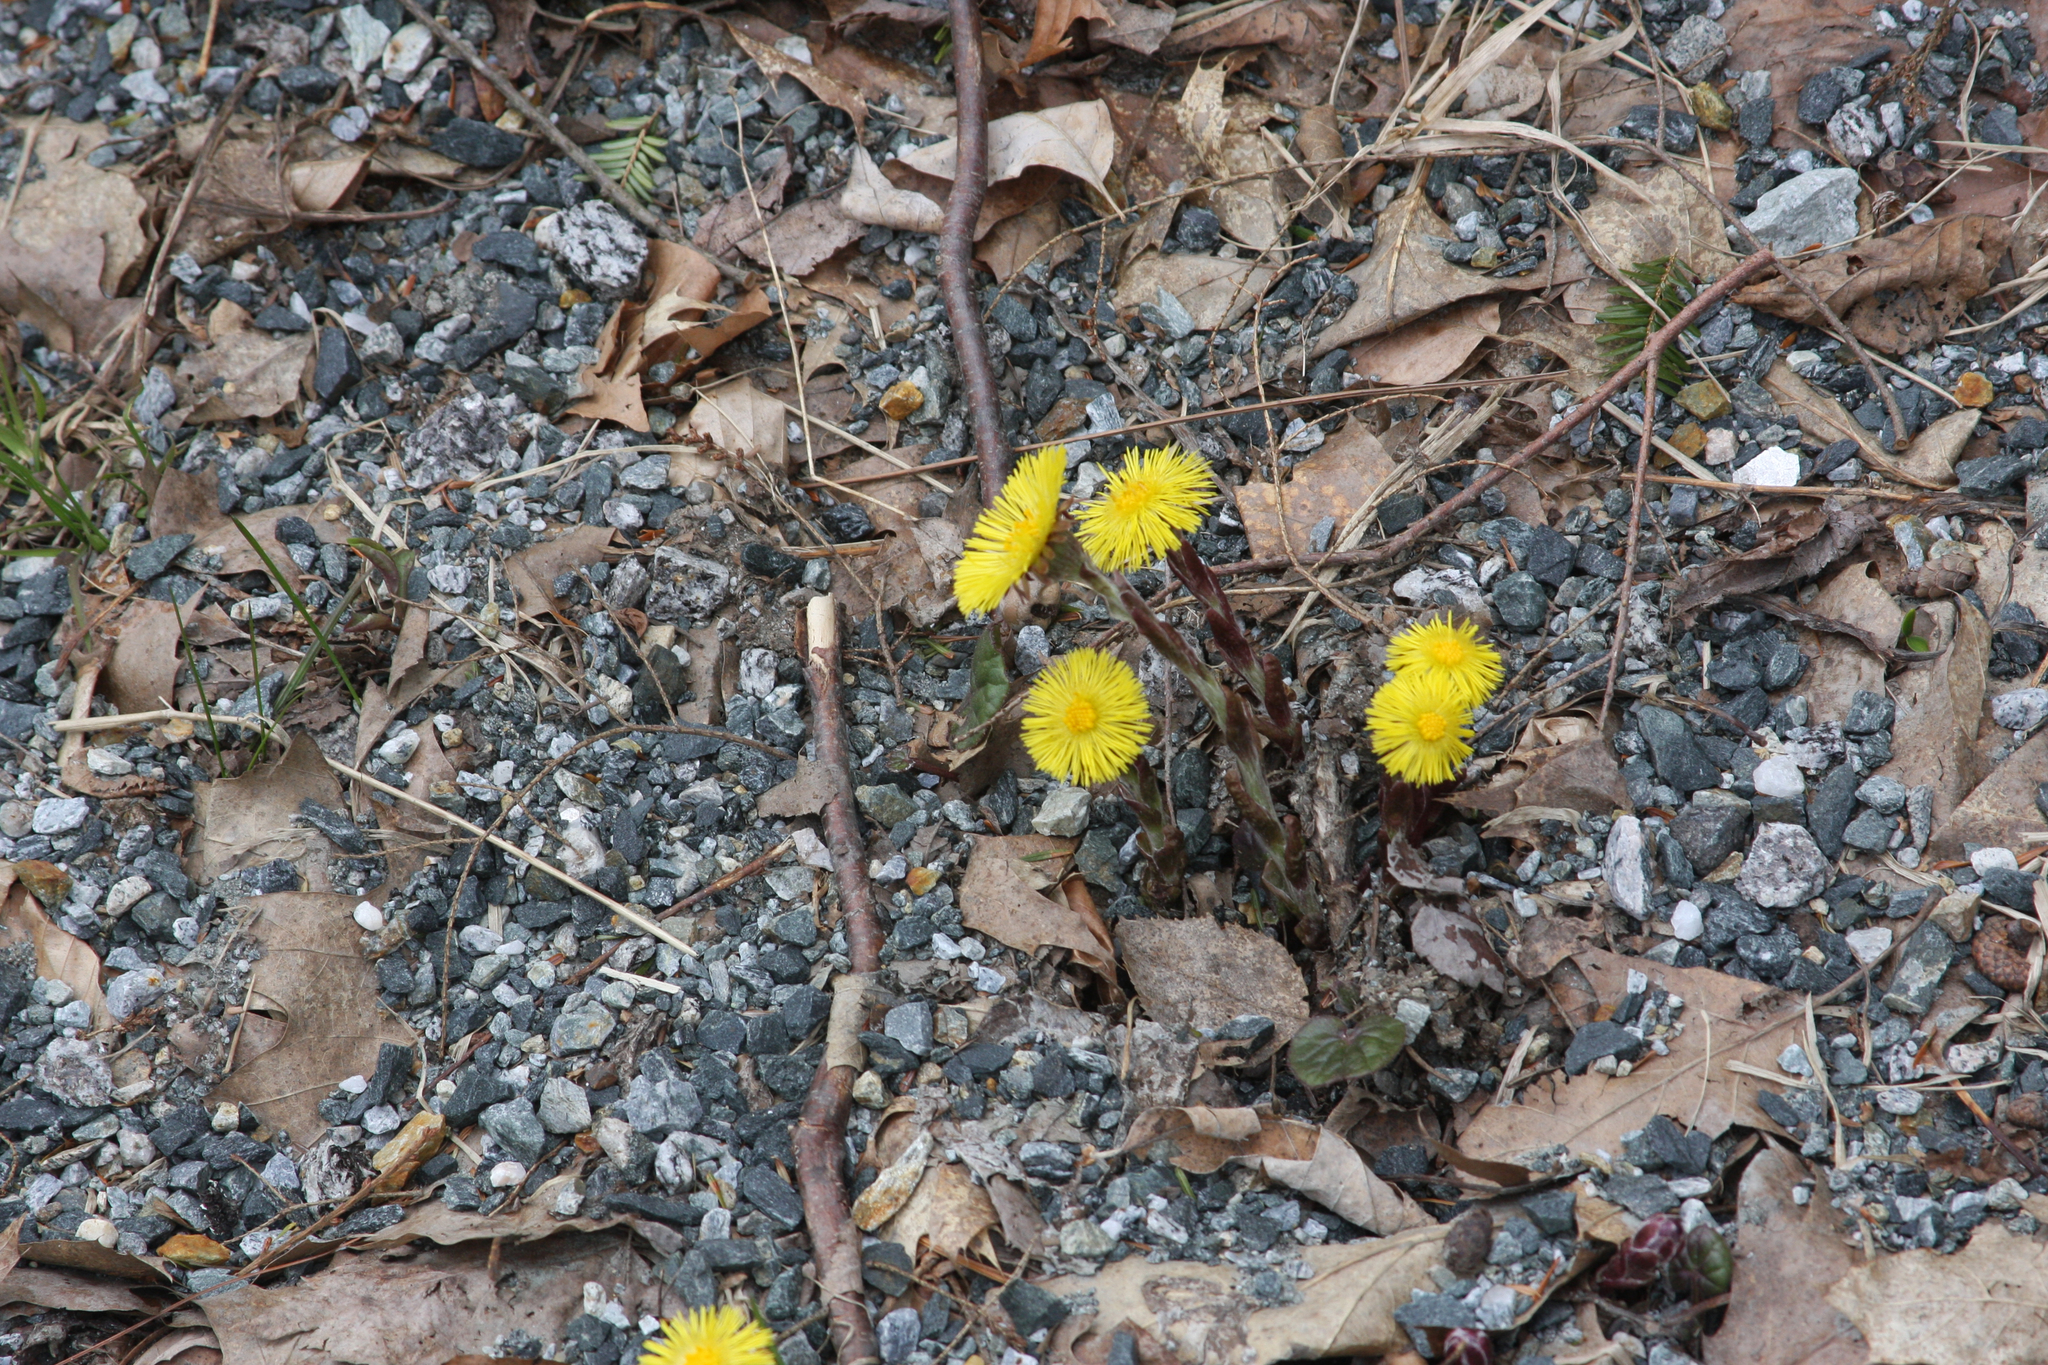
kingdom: Plantae
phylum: Tracheophyta
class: Magnoliopsida
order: Asterales
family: Asteraceae
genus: Tussilago
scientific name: Tussilago farfara
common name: Coltsfoot
